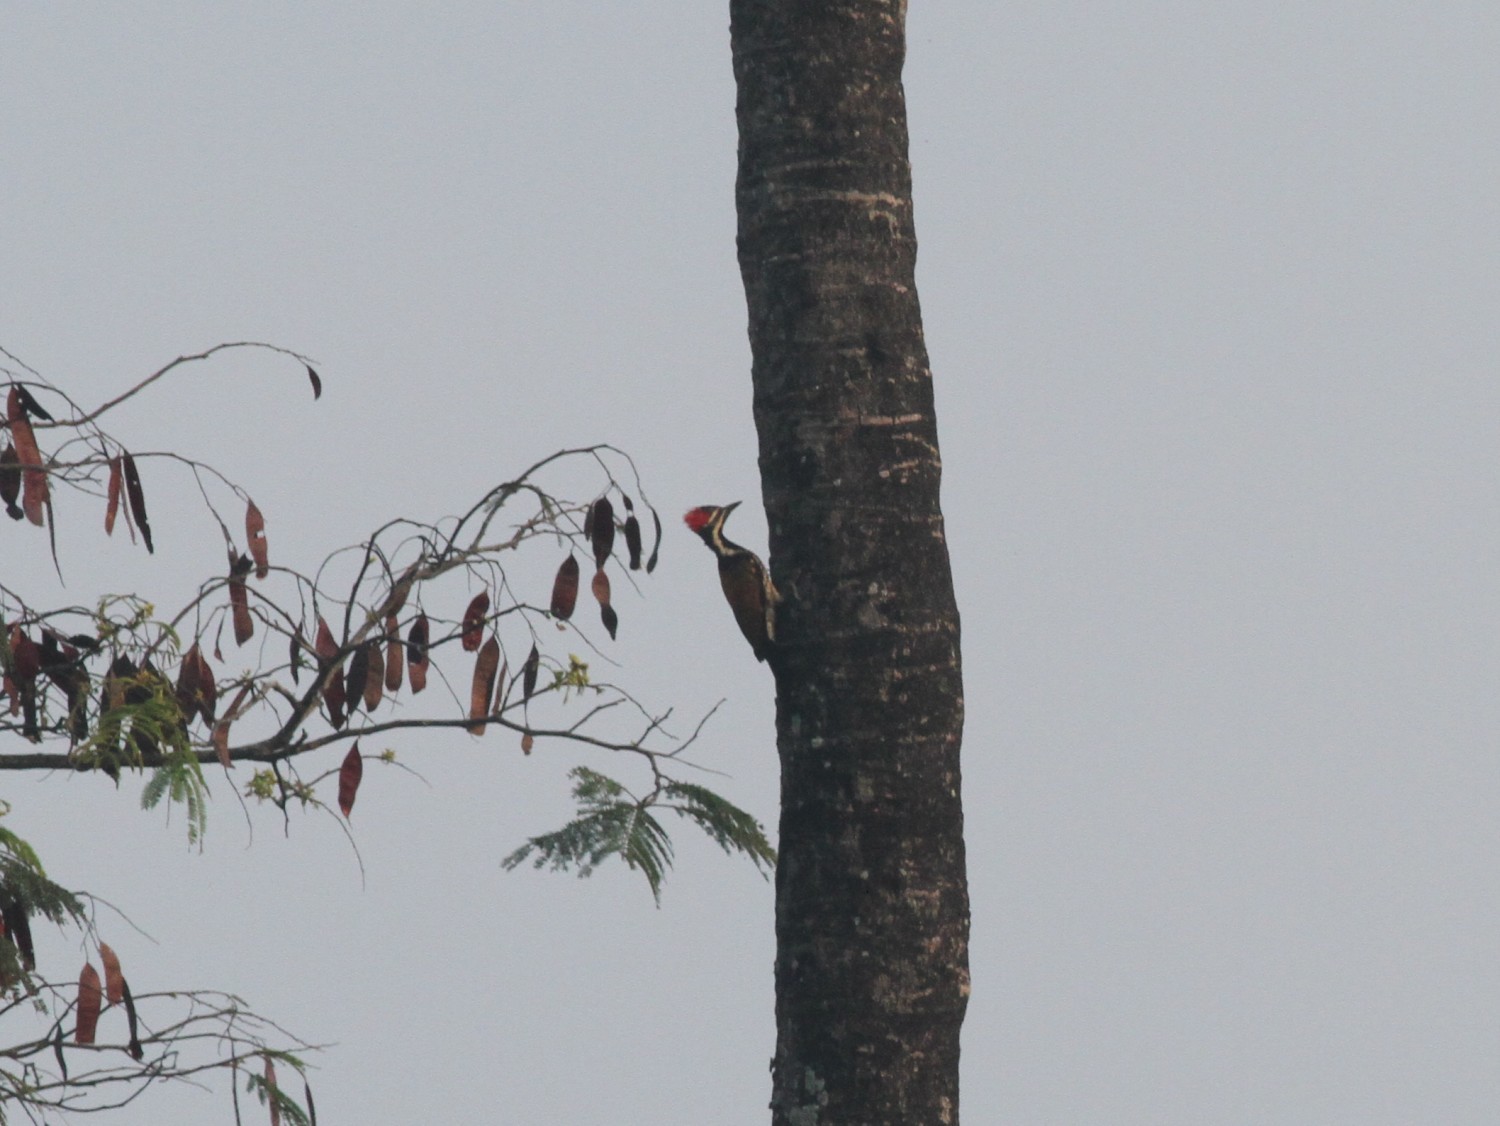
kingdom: Animalia
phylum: Chordata
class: Aves
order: Piciformes
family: Picidae
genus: Dinopium
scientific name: Dinopium benghalense
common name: Black-rumped flameback
